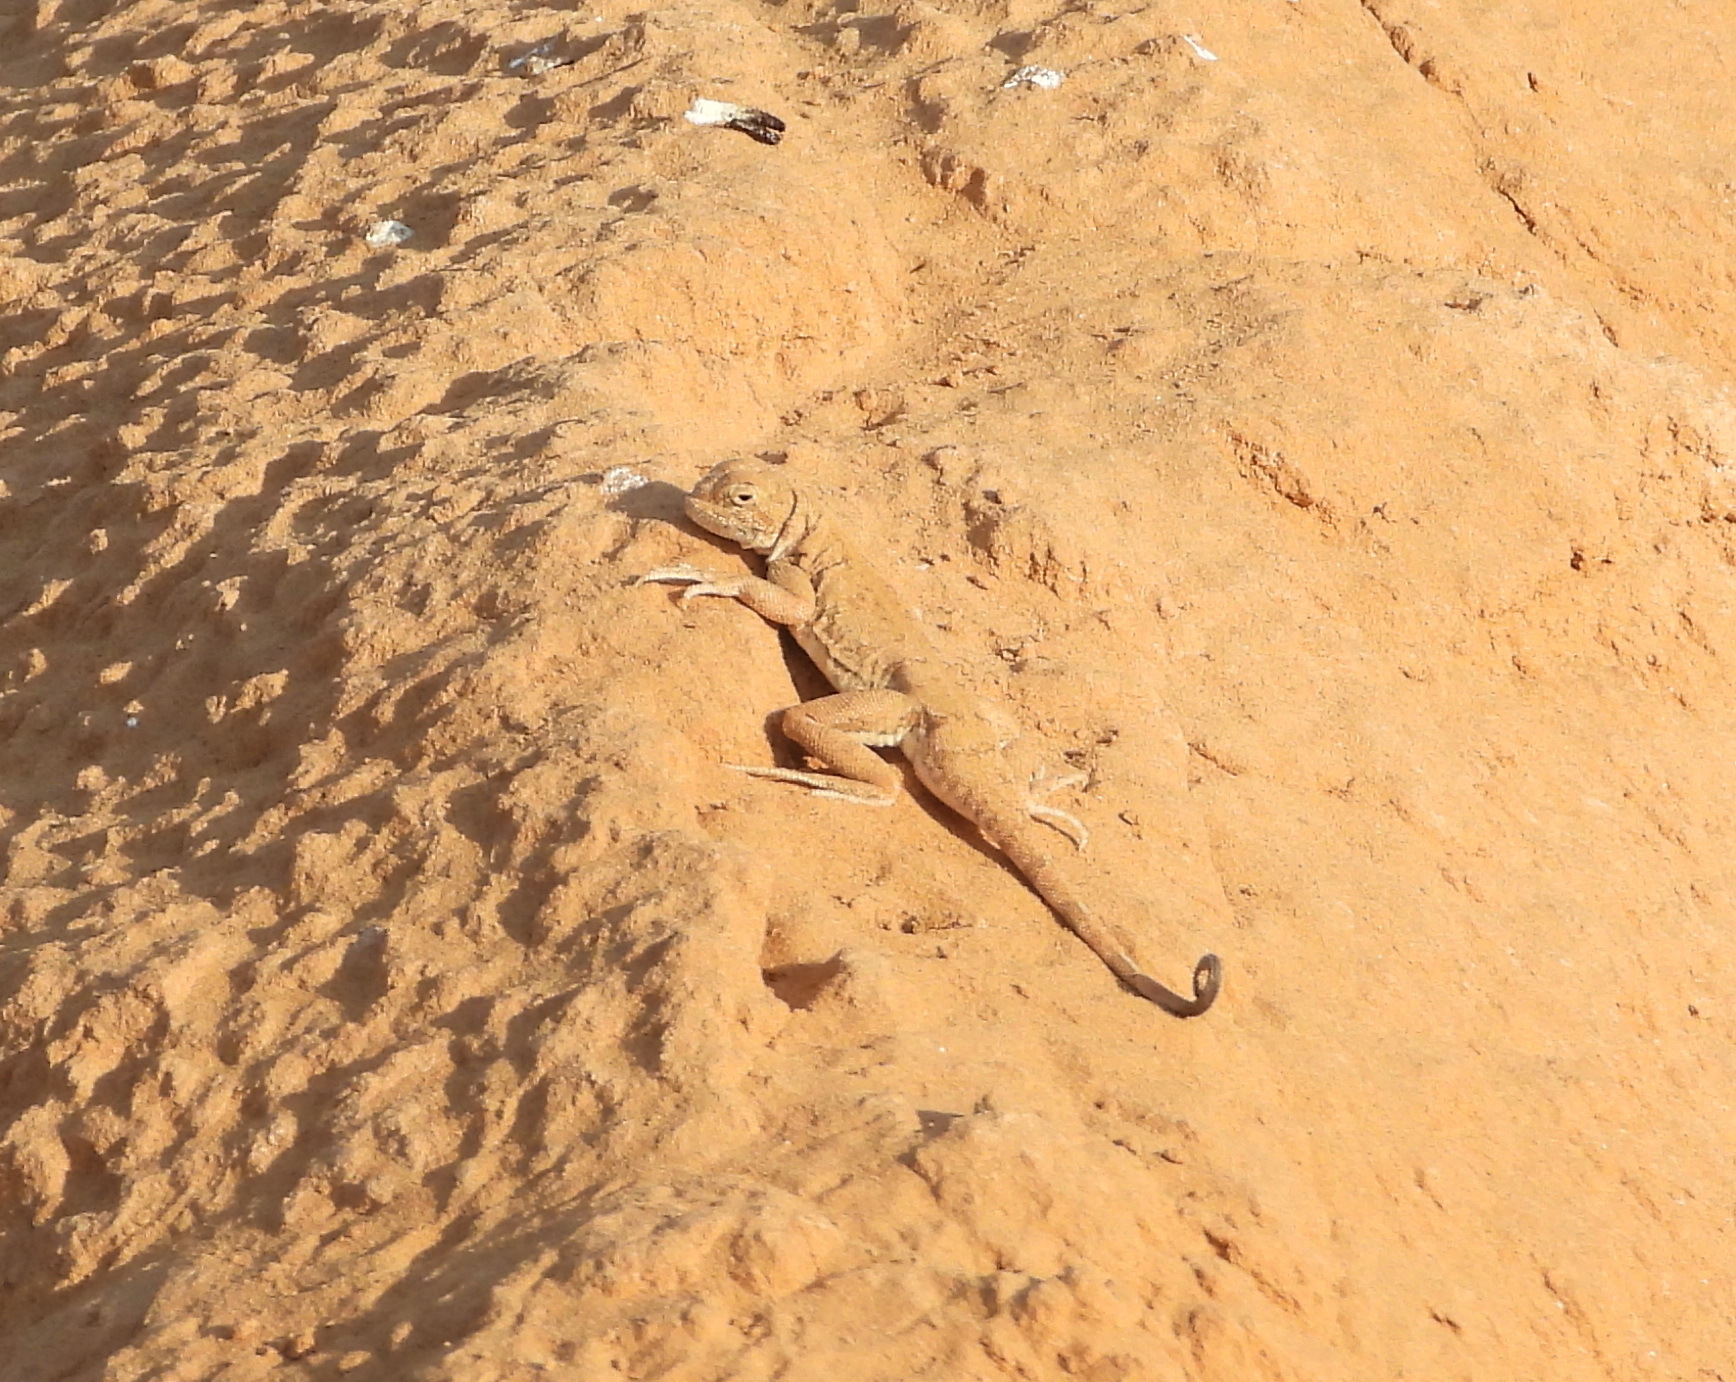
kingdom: Animalia
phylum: Chordata
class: Squamata
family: Agamidae
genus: Phrynocephalus
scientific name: Phrynocephalus guttatus
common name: Spotted toadhead agama
